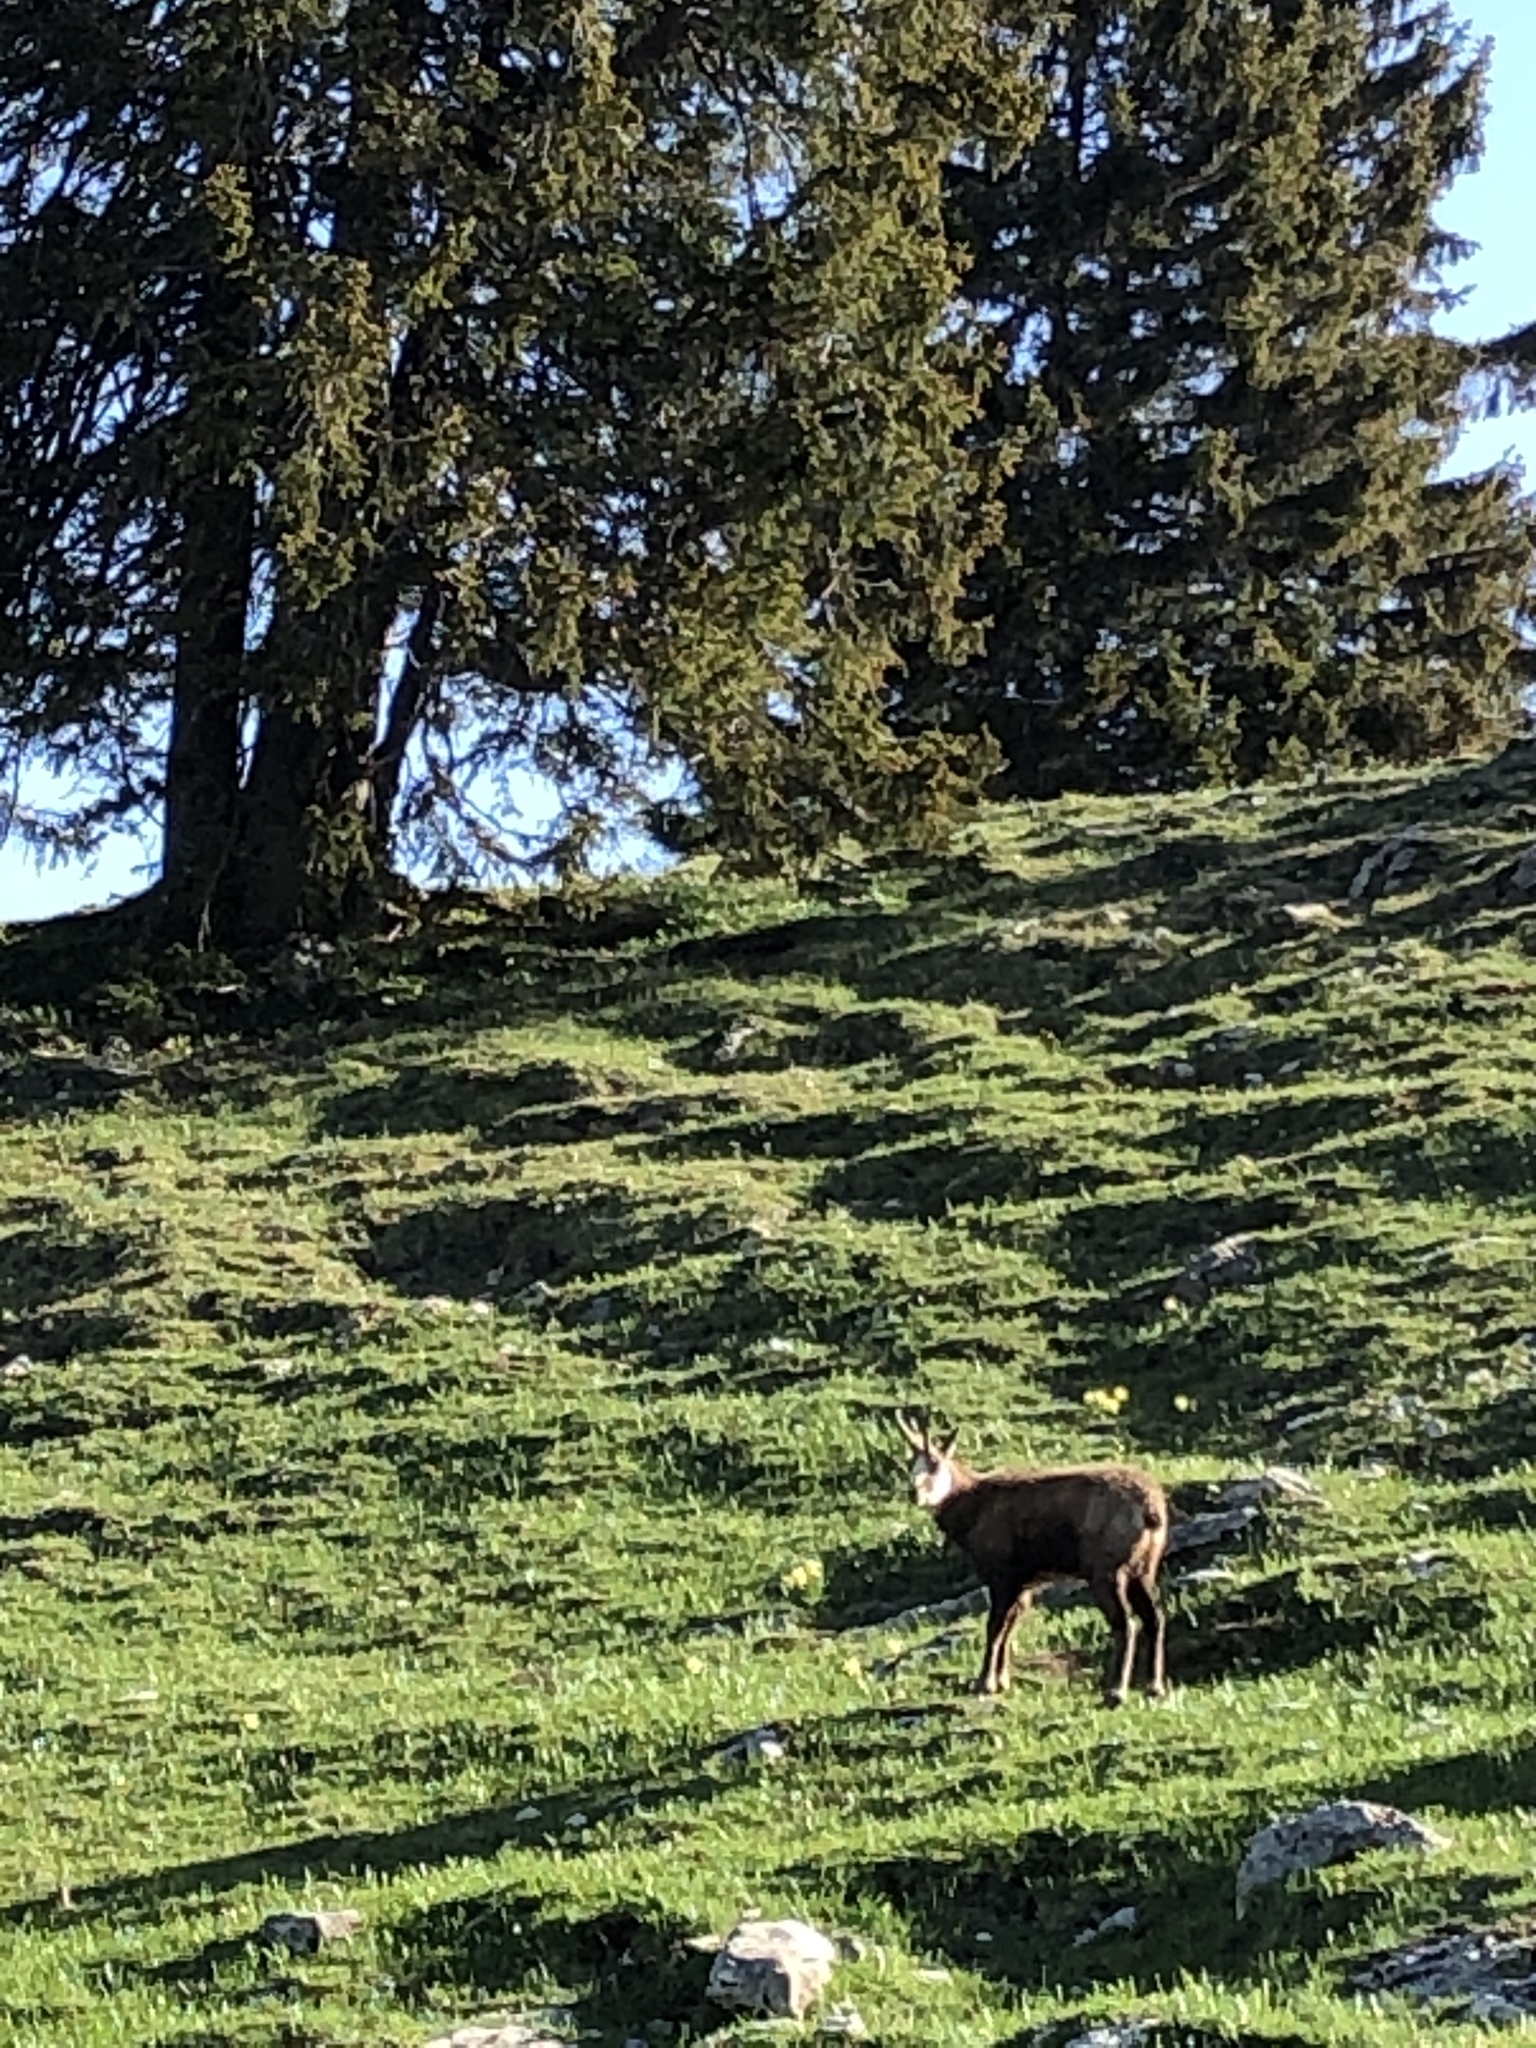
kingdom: Animalia
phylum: Chordata
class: Mammalia
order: Artiodactyla
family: Bovidae
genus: Rupicapra
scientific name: Rupicapra rupicapra
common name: Chamois
